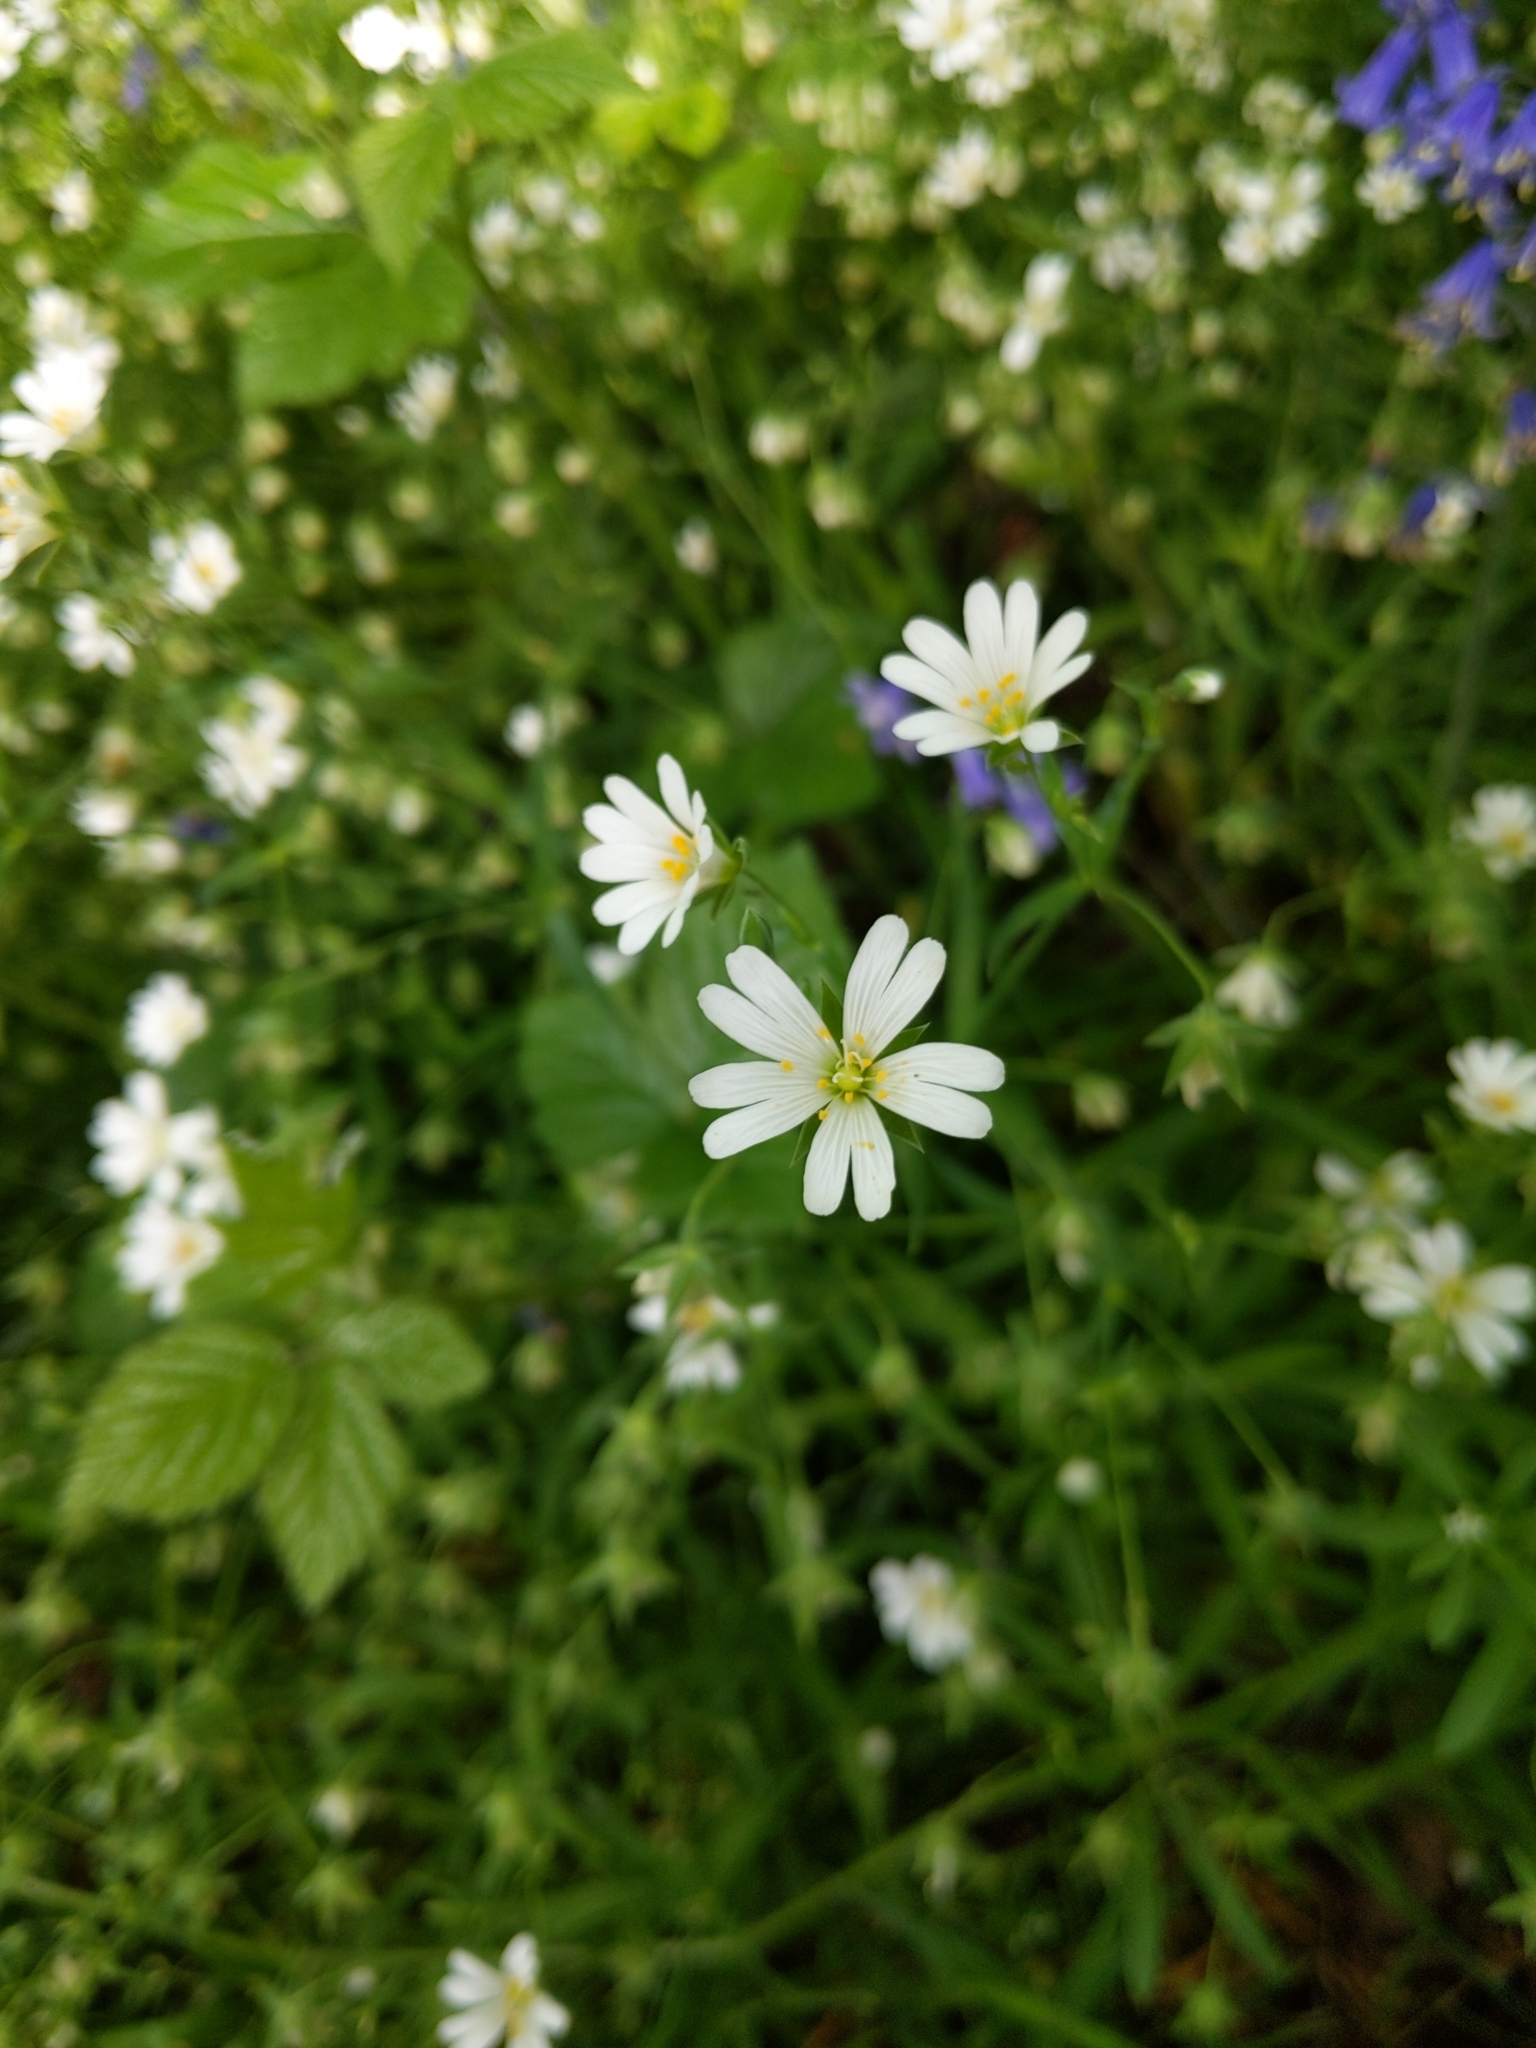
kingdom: Plantae
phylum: Tracheophyta
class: Magnoliopsida
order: Caryophyllales
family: Caryophyllaceae
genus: Rabelera
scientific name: Rabelera holostea
